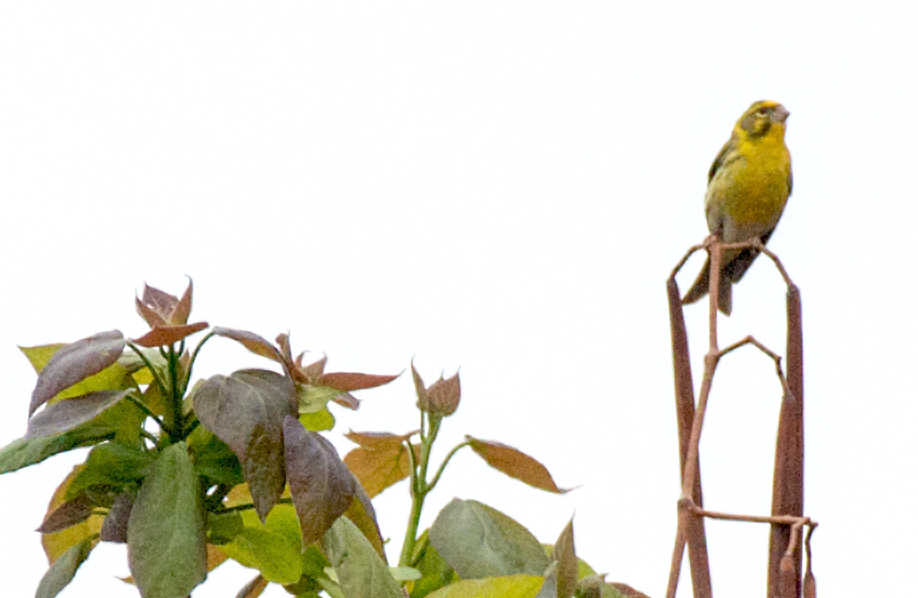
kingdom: Animalia
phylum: Chordata
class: Aves
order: Passeriformes
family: Fringillidae
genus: Serinus
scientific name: Serinus serinus
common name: European serin
